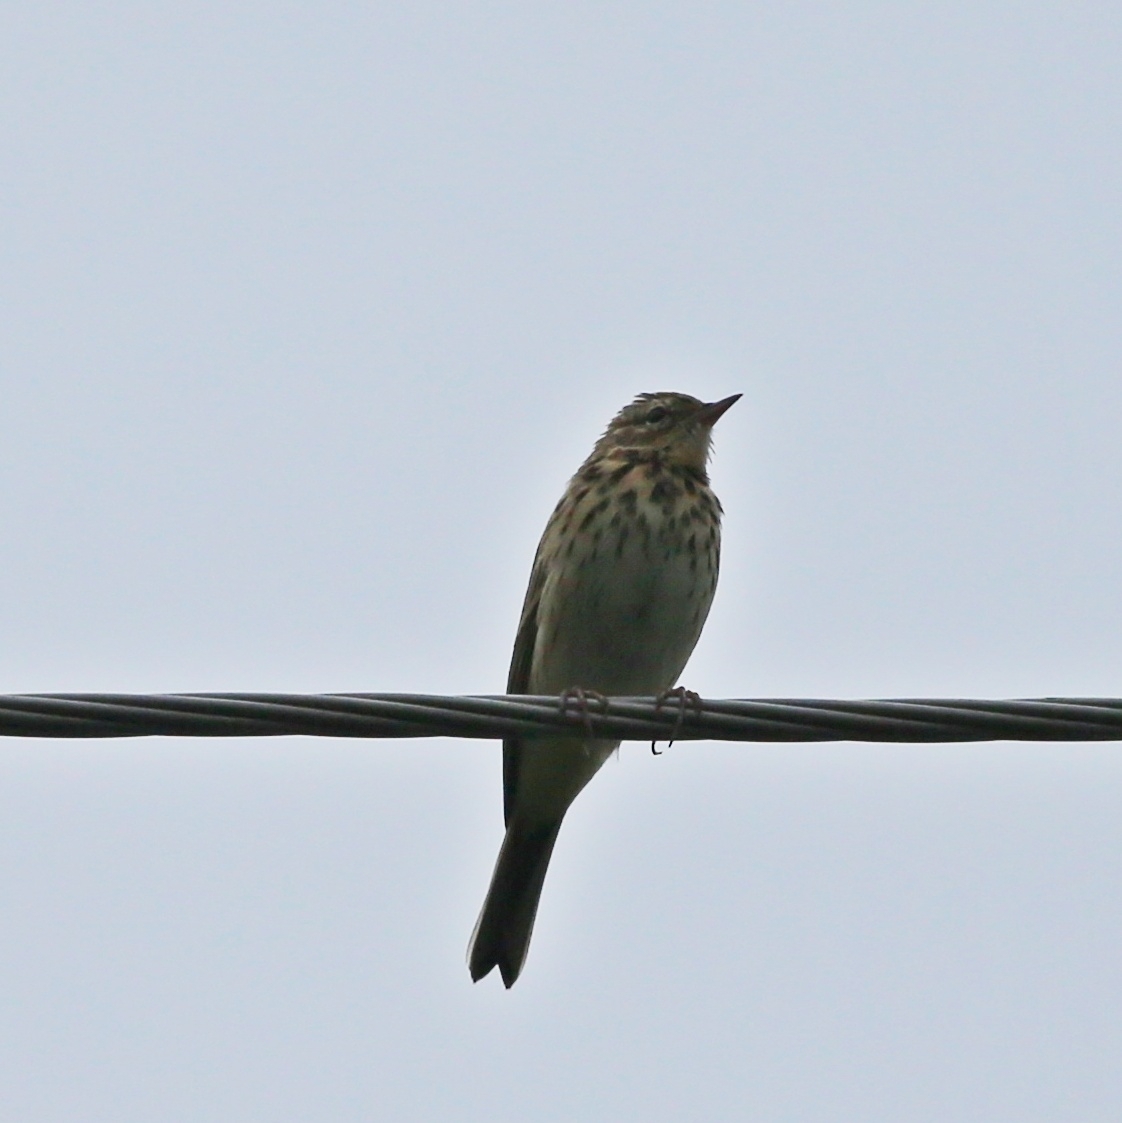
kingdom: Animalia
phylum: Chordata
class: Aves
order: Passeriformes
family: Motacillidae
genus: Anthus
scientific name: Anthus trivialis
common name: Tree pipit
